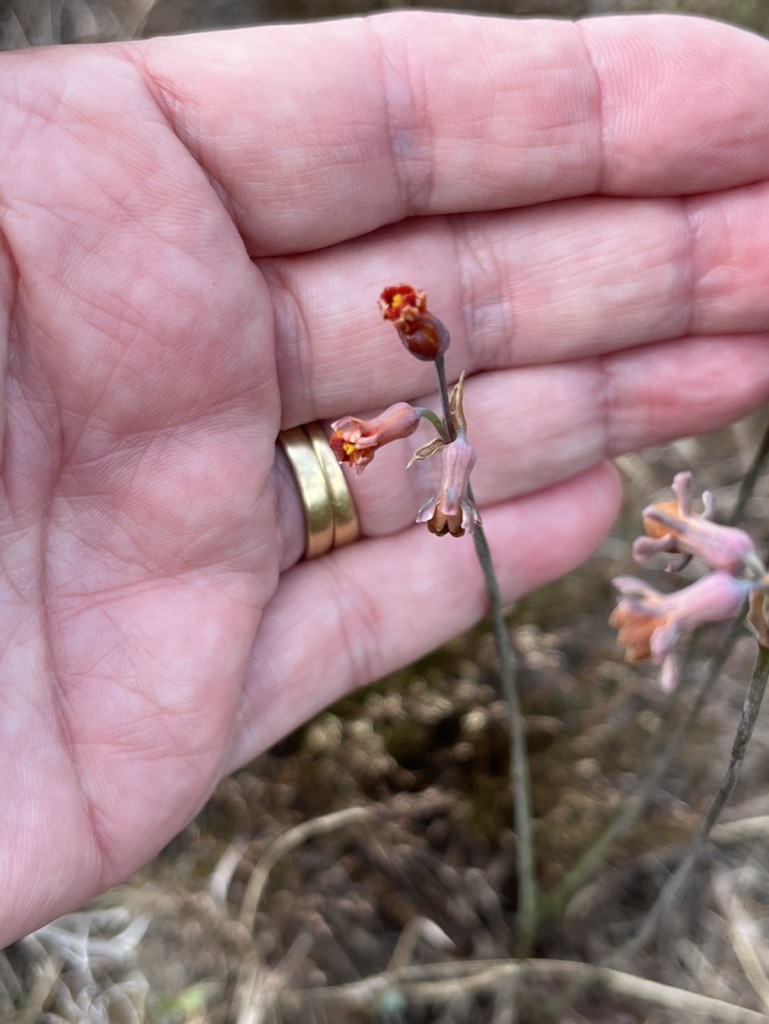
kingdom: Plantae
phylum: Tracheophyta
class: Liliopsida
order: Asparagales
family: Amaryllidaceae
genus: Tulbaghia
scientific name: Tulbaghia alliacea
